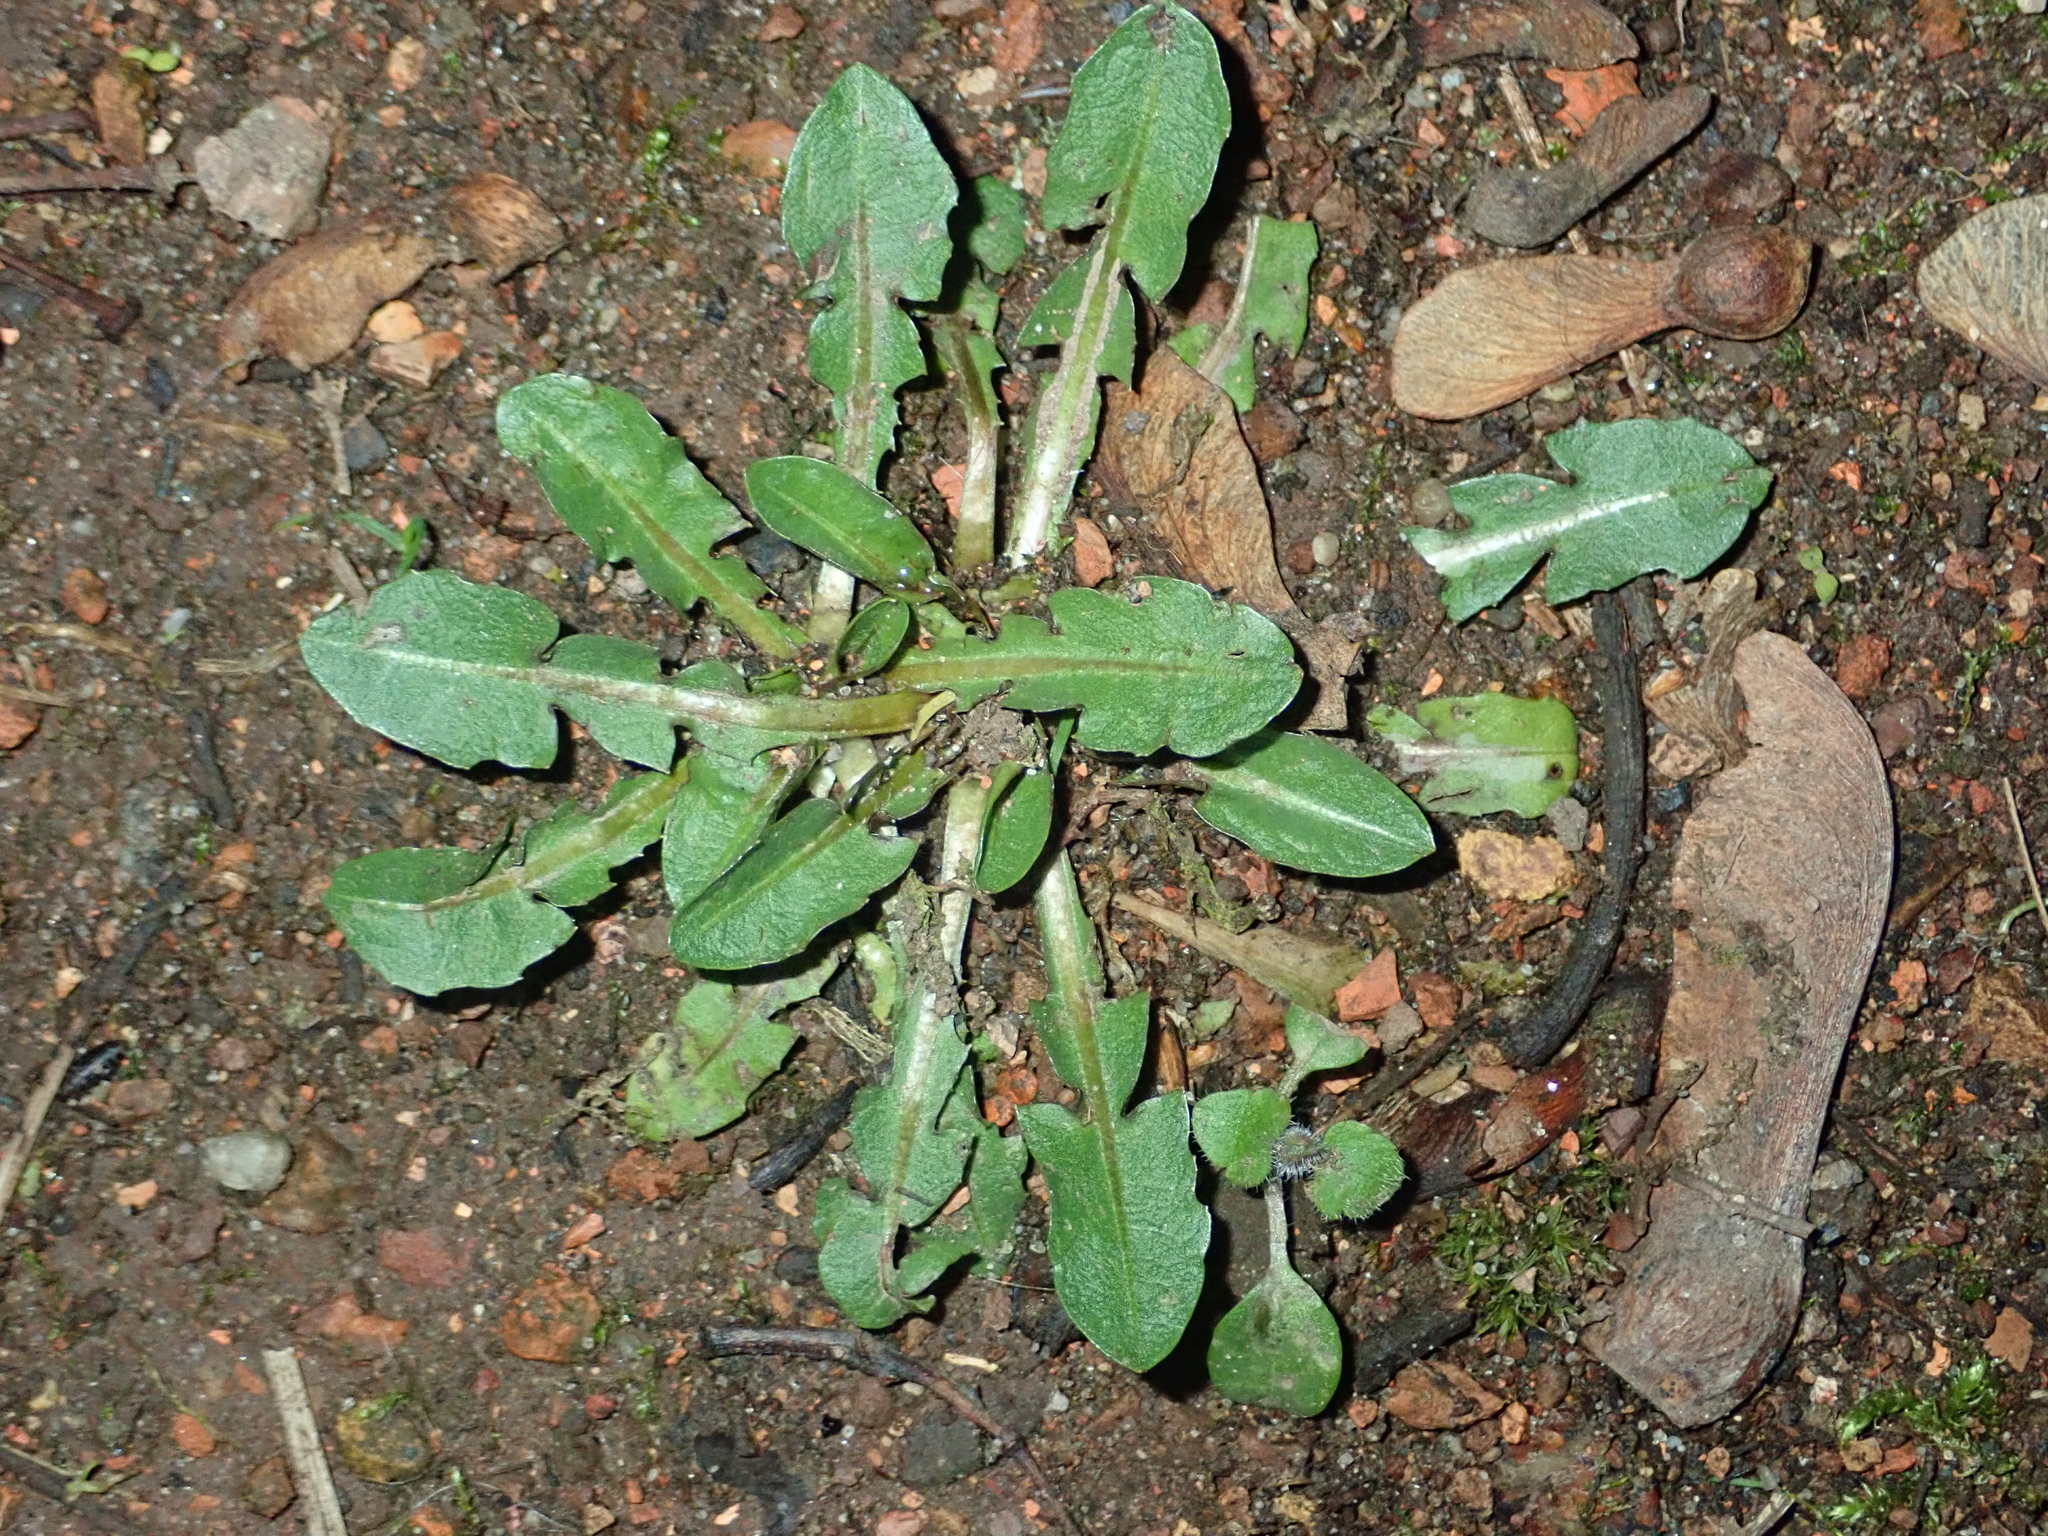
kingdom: Plantae
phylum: Tracheophyta
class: Magnoliopsida
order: Asterales
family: Asteraceae
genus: Taraxacum
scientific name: Taraxacum officinale
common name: Common dandelion
